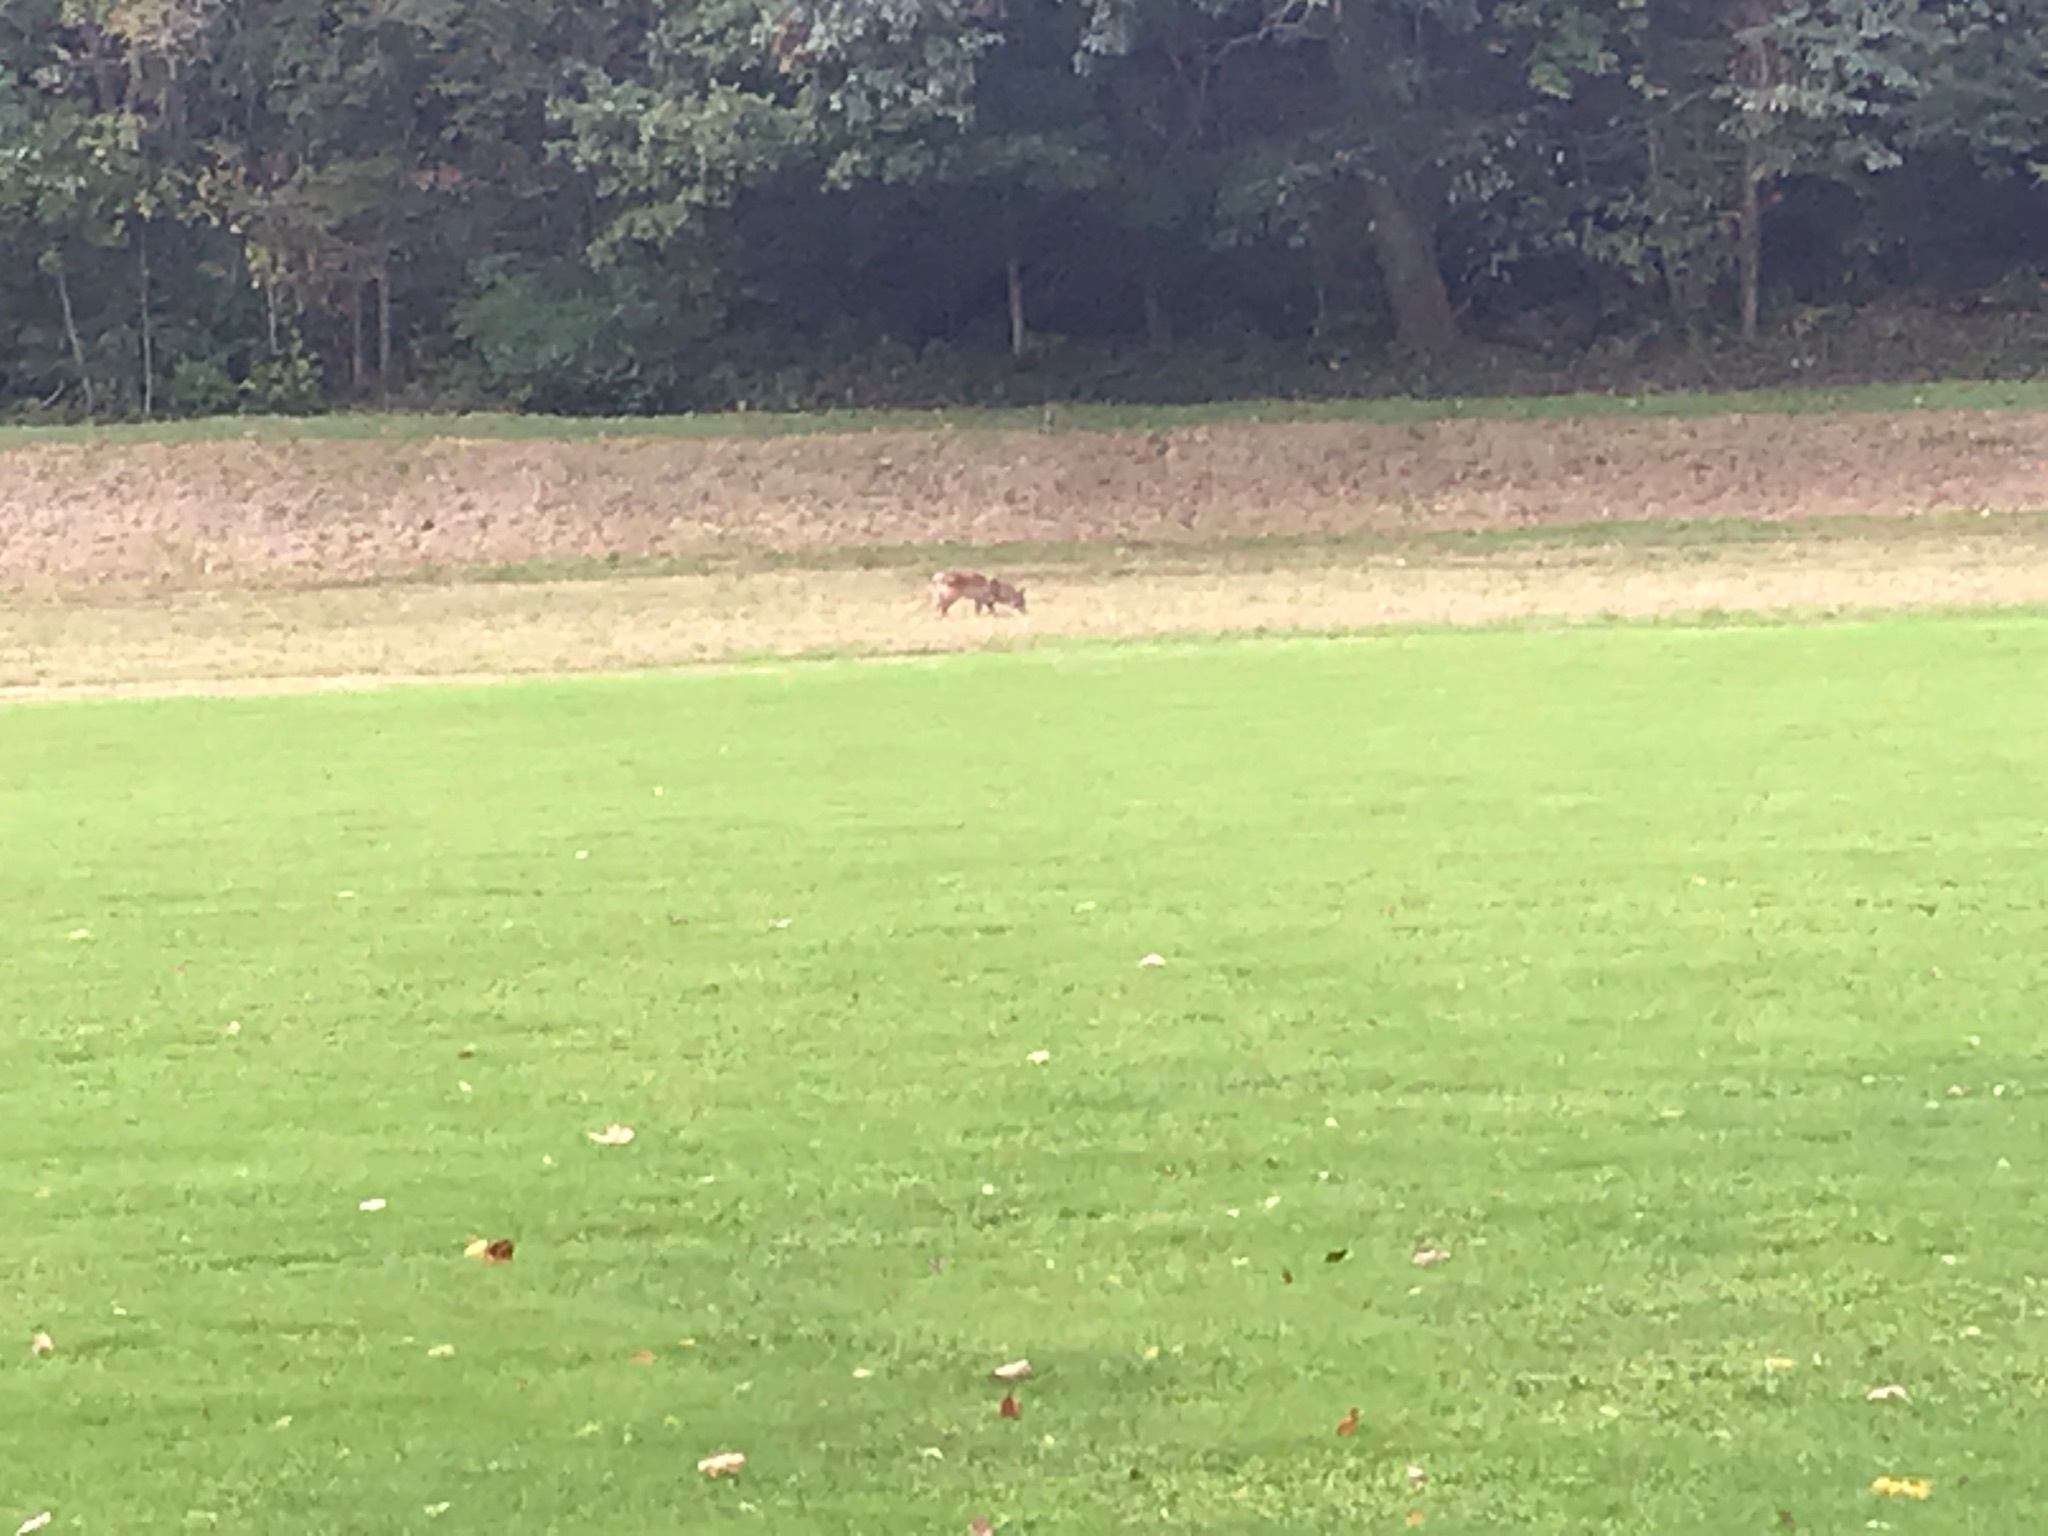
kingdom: Animalia
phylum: Chordata
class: Mammalia
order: Carnivora
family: Canidae
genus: Canis
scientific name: Canis latrans
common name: Coyote
